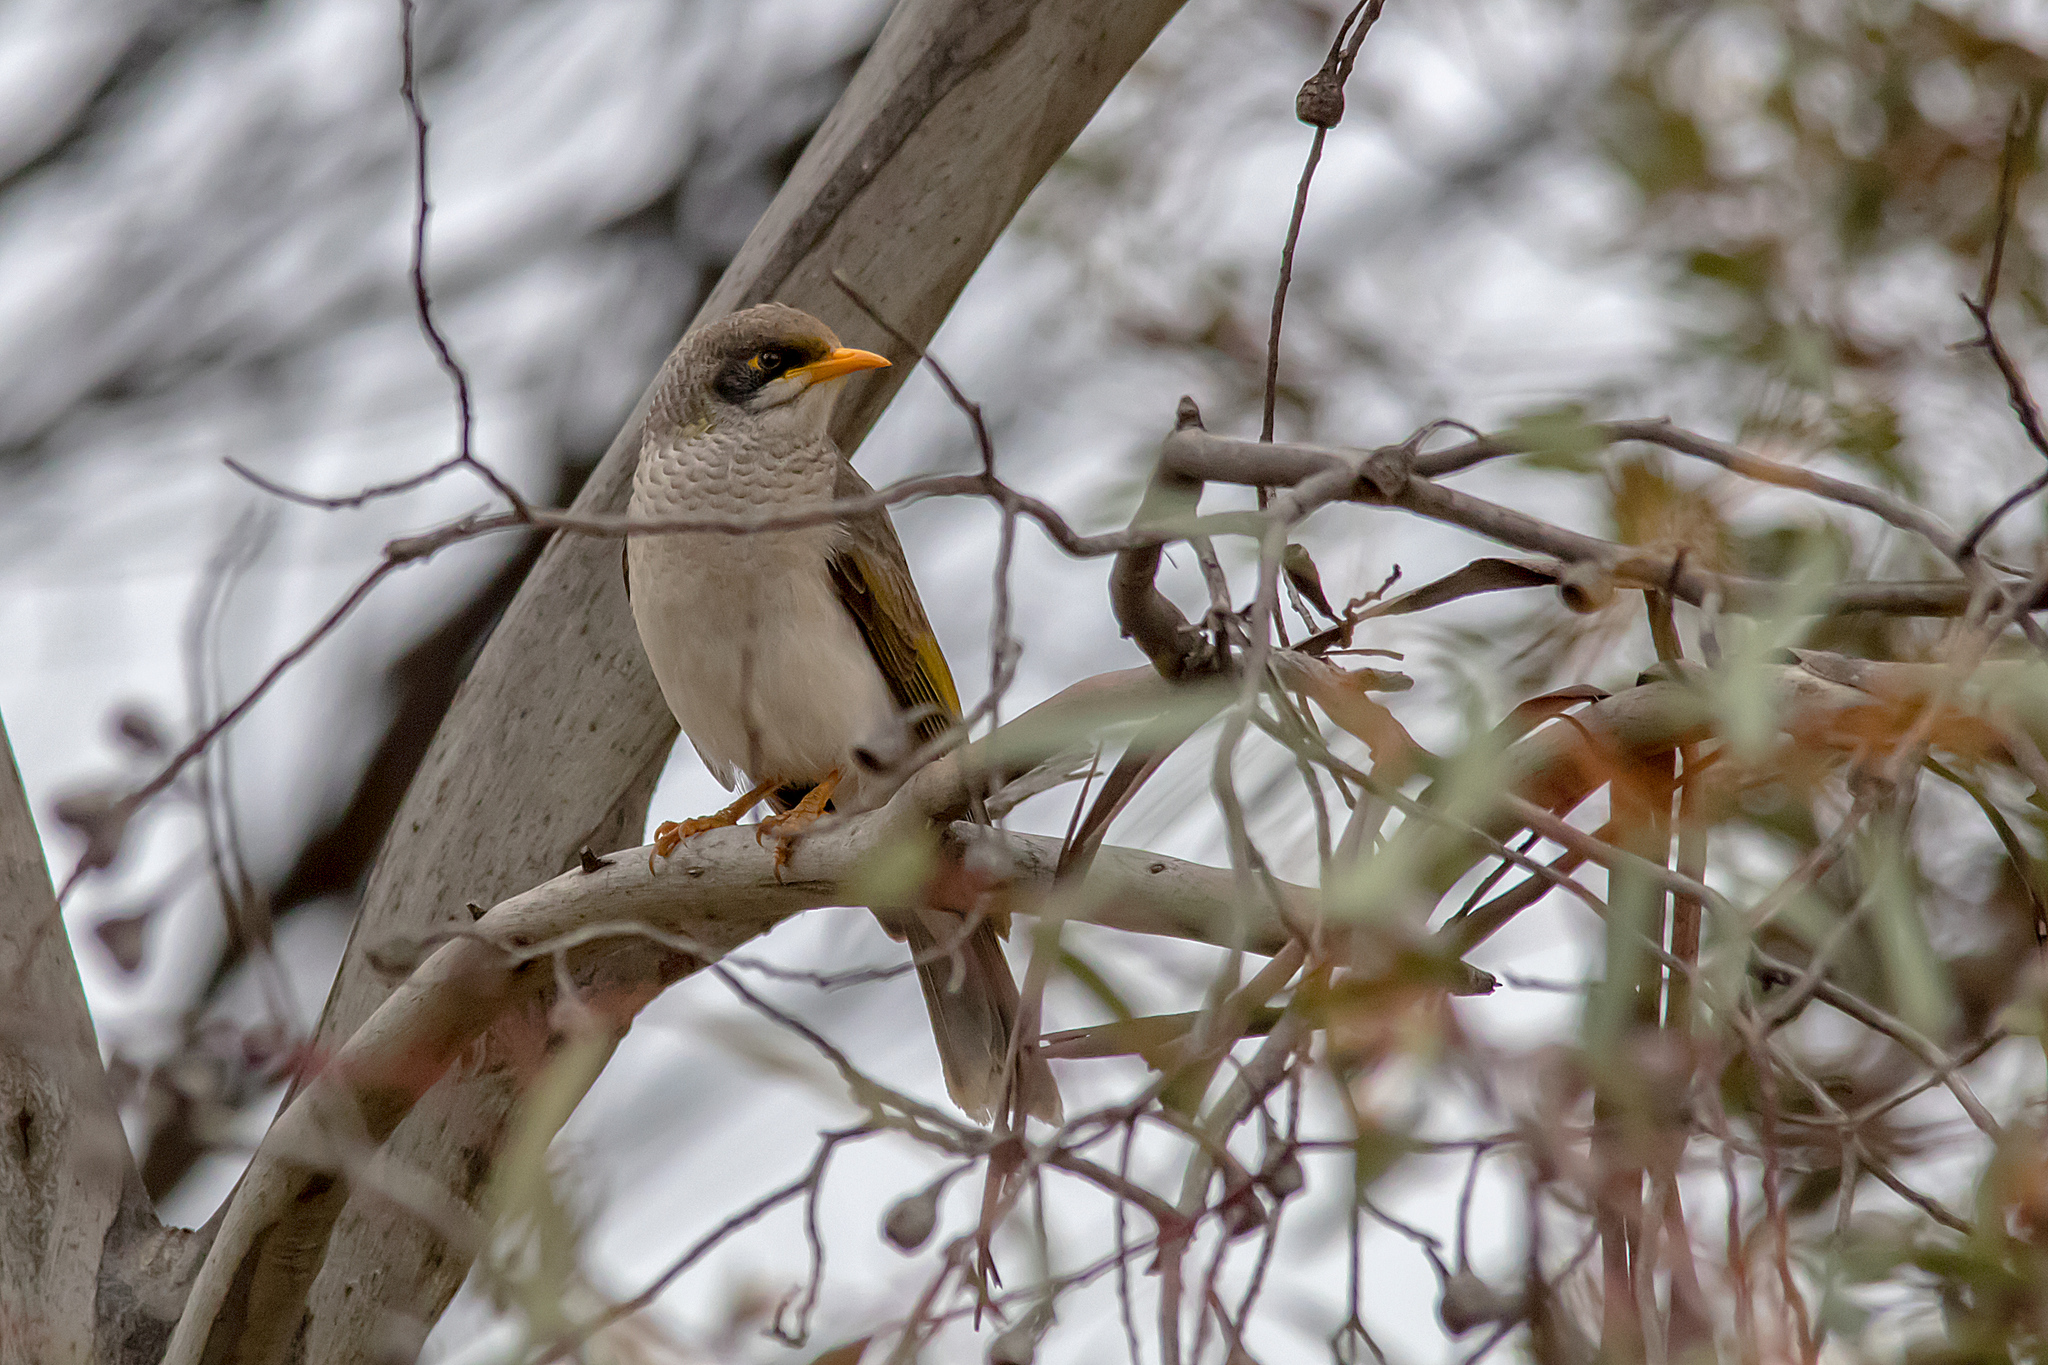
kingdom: Animalia
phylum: Chordata
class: Aves
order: Passeriformes
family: Meliphagidae
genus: Manorina
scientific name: Manorina flavigula
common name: Yellow-throated miner
